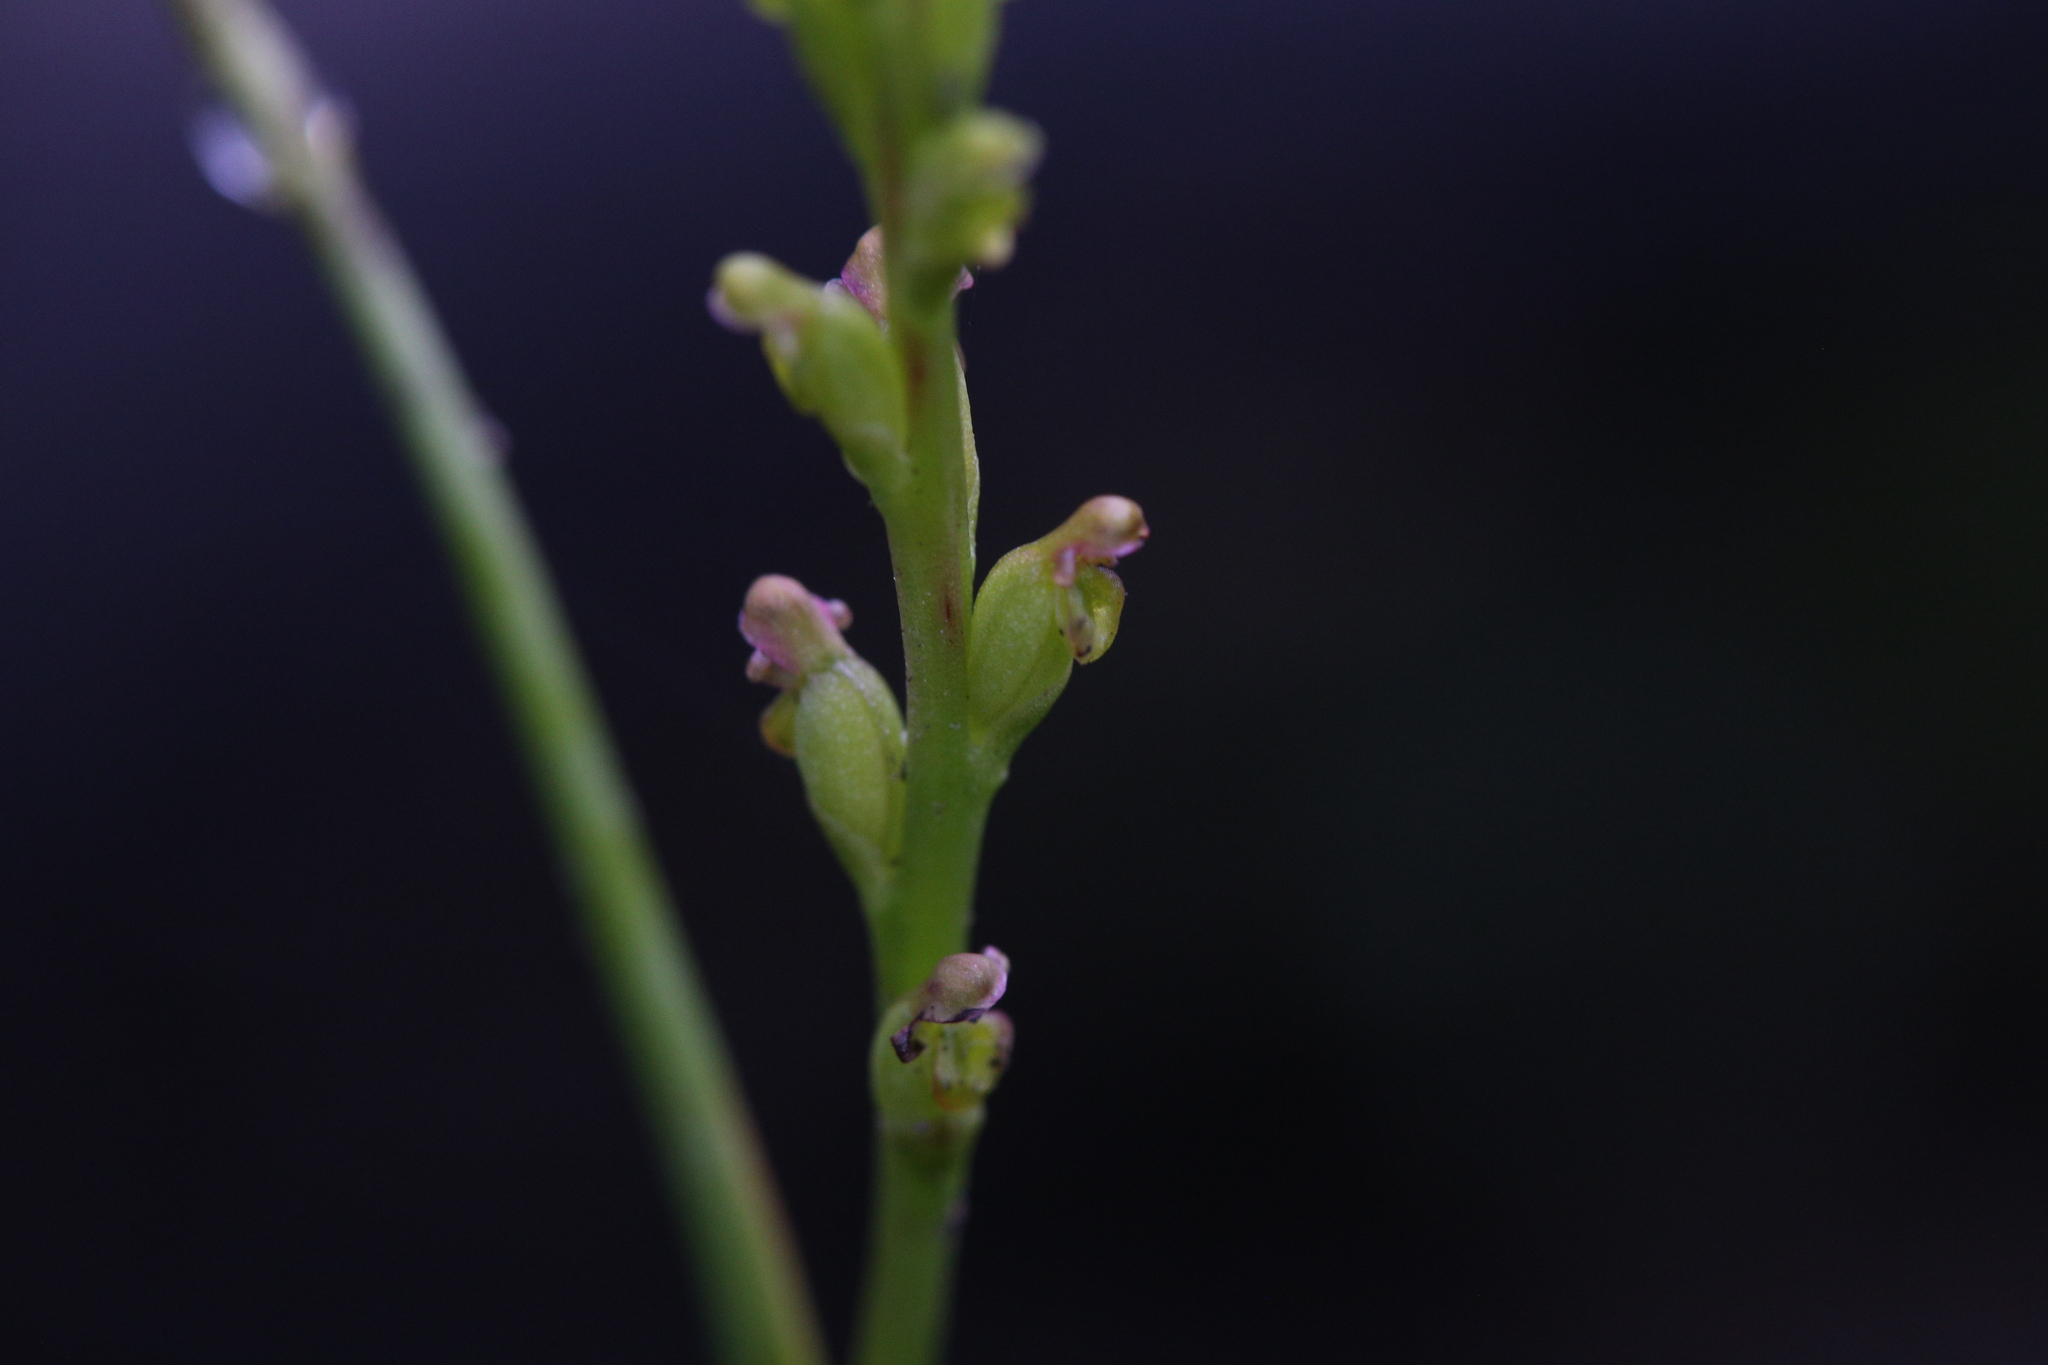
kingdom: Plantae
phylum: Tracheophyta
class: Liliopsida
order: Asparagales
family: Orchidaceae
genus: Microtis
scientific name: Microtis orbicularis
